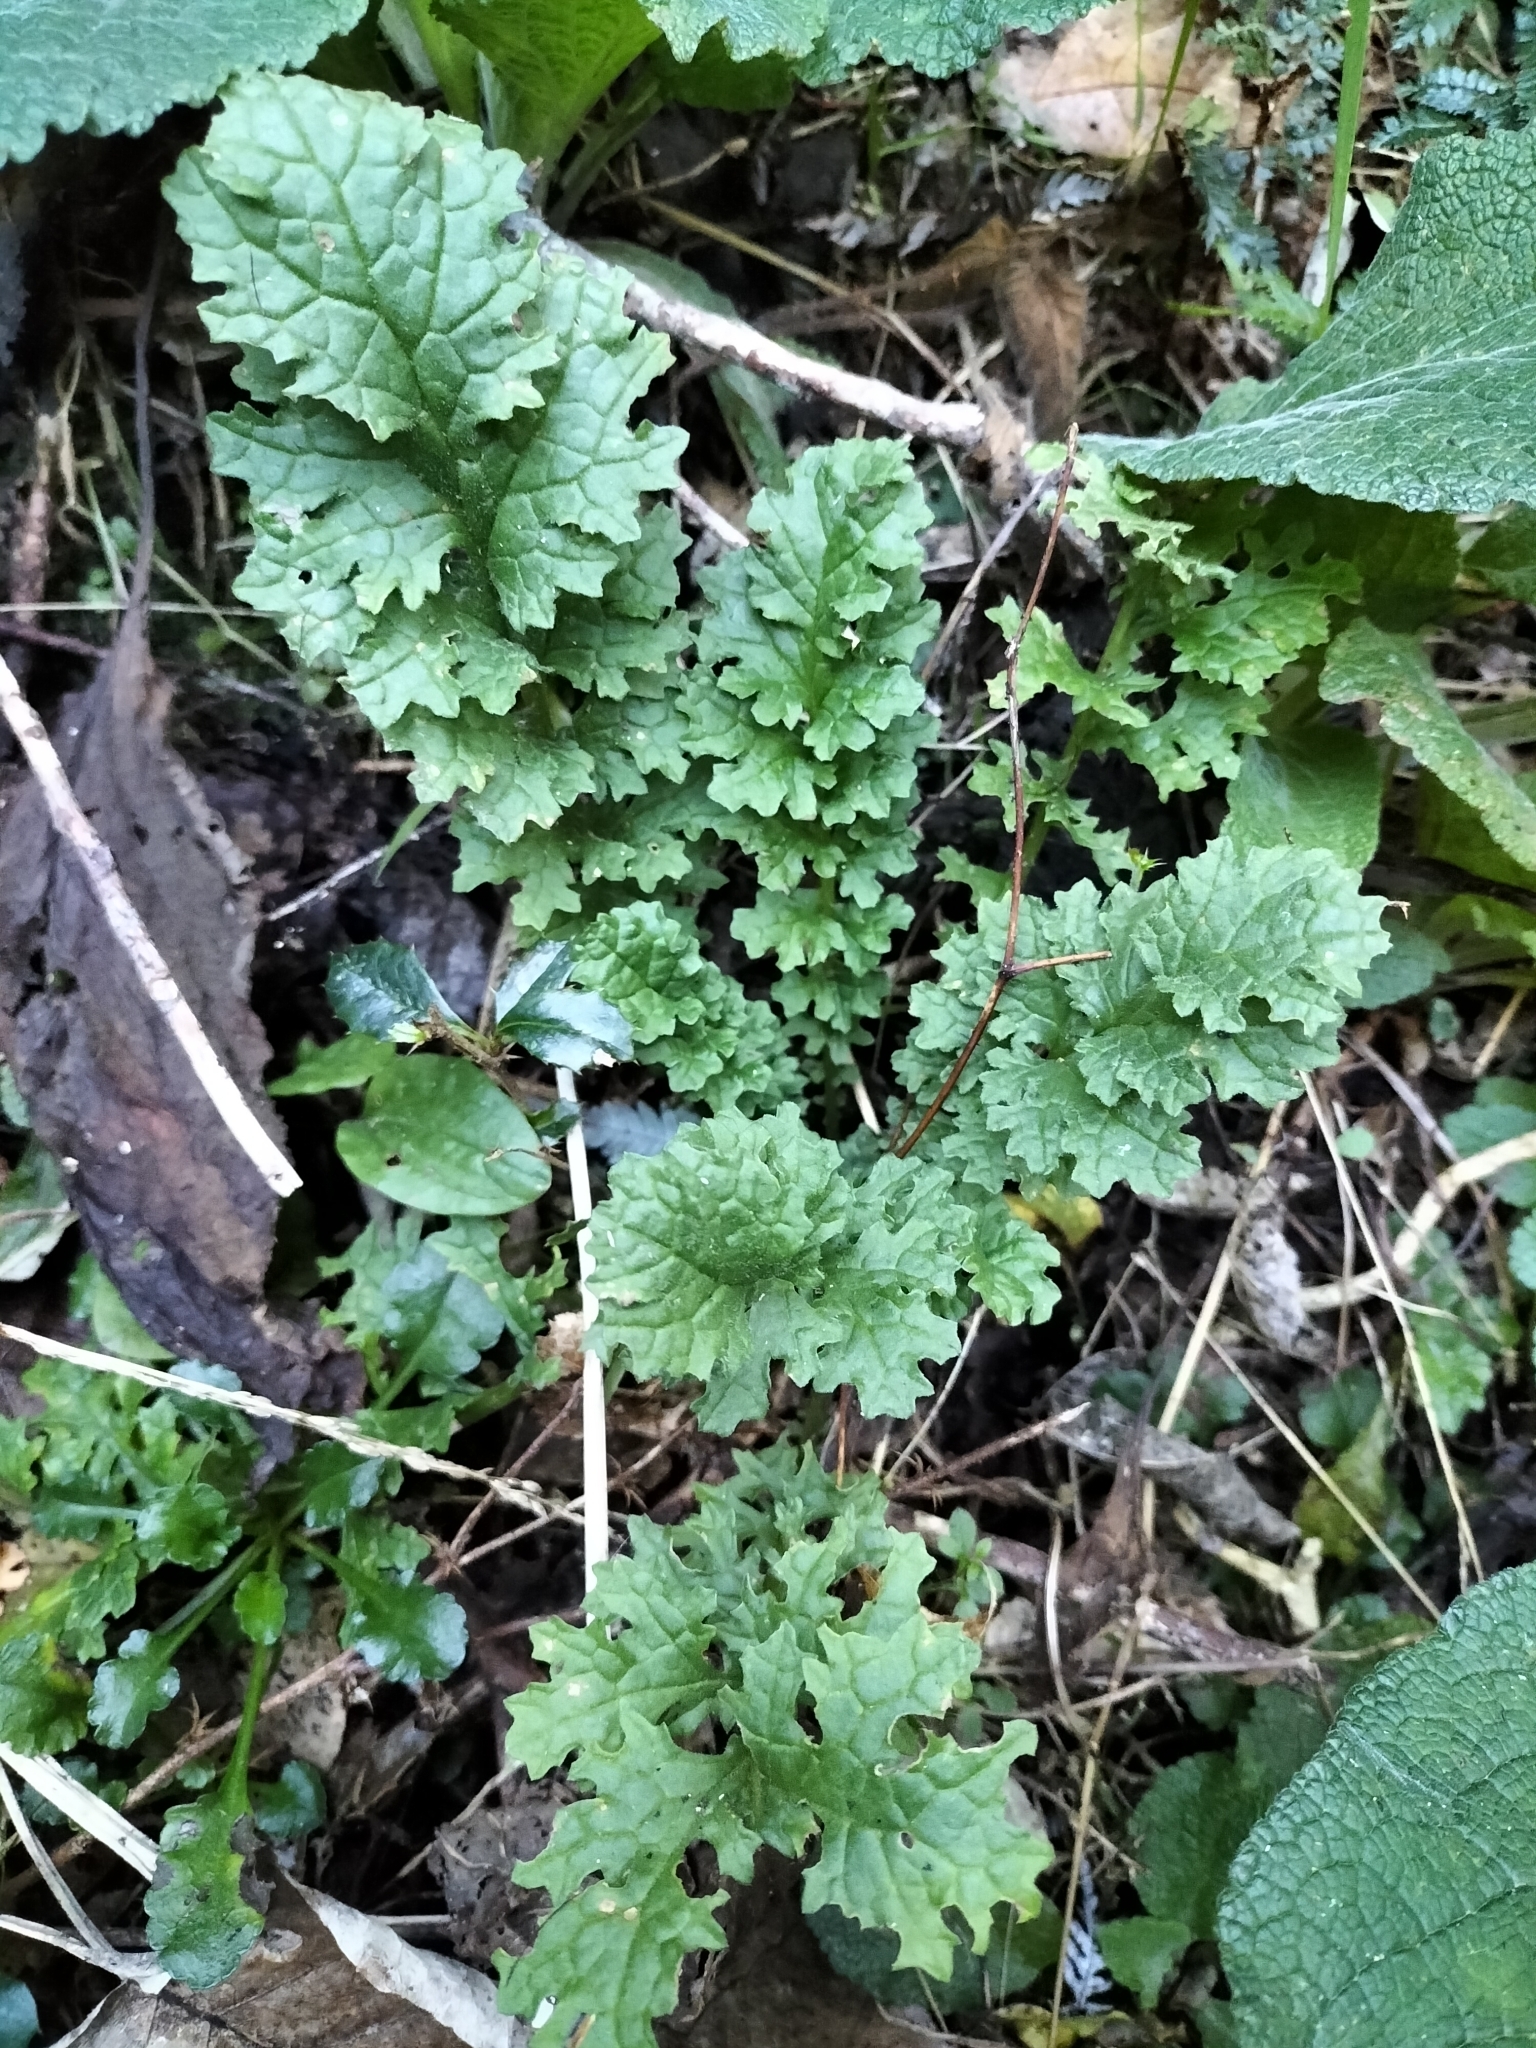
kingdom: Plantae
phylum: Tracheophyta
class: Magnoliopsida
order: Asterales
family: Asteraceae
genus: Jacobaea
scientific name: Jacobaea vulgaris
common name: Stinking willie
